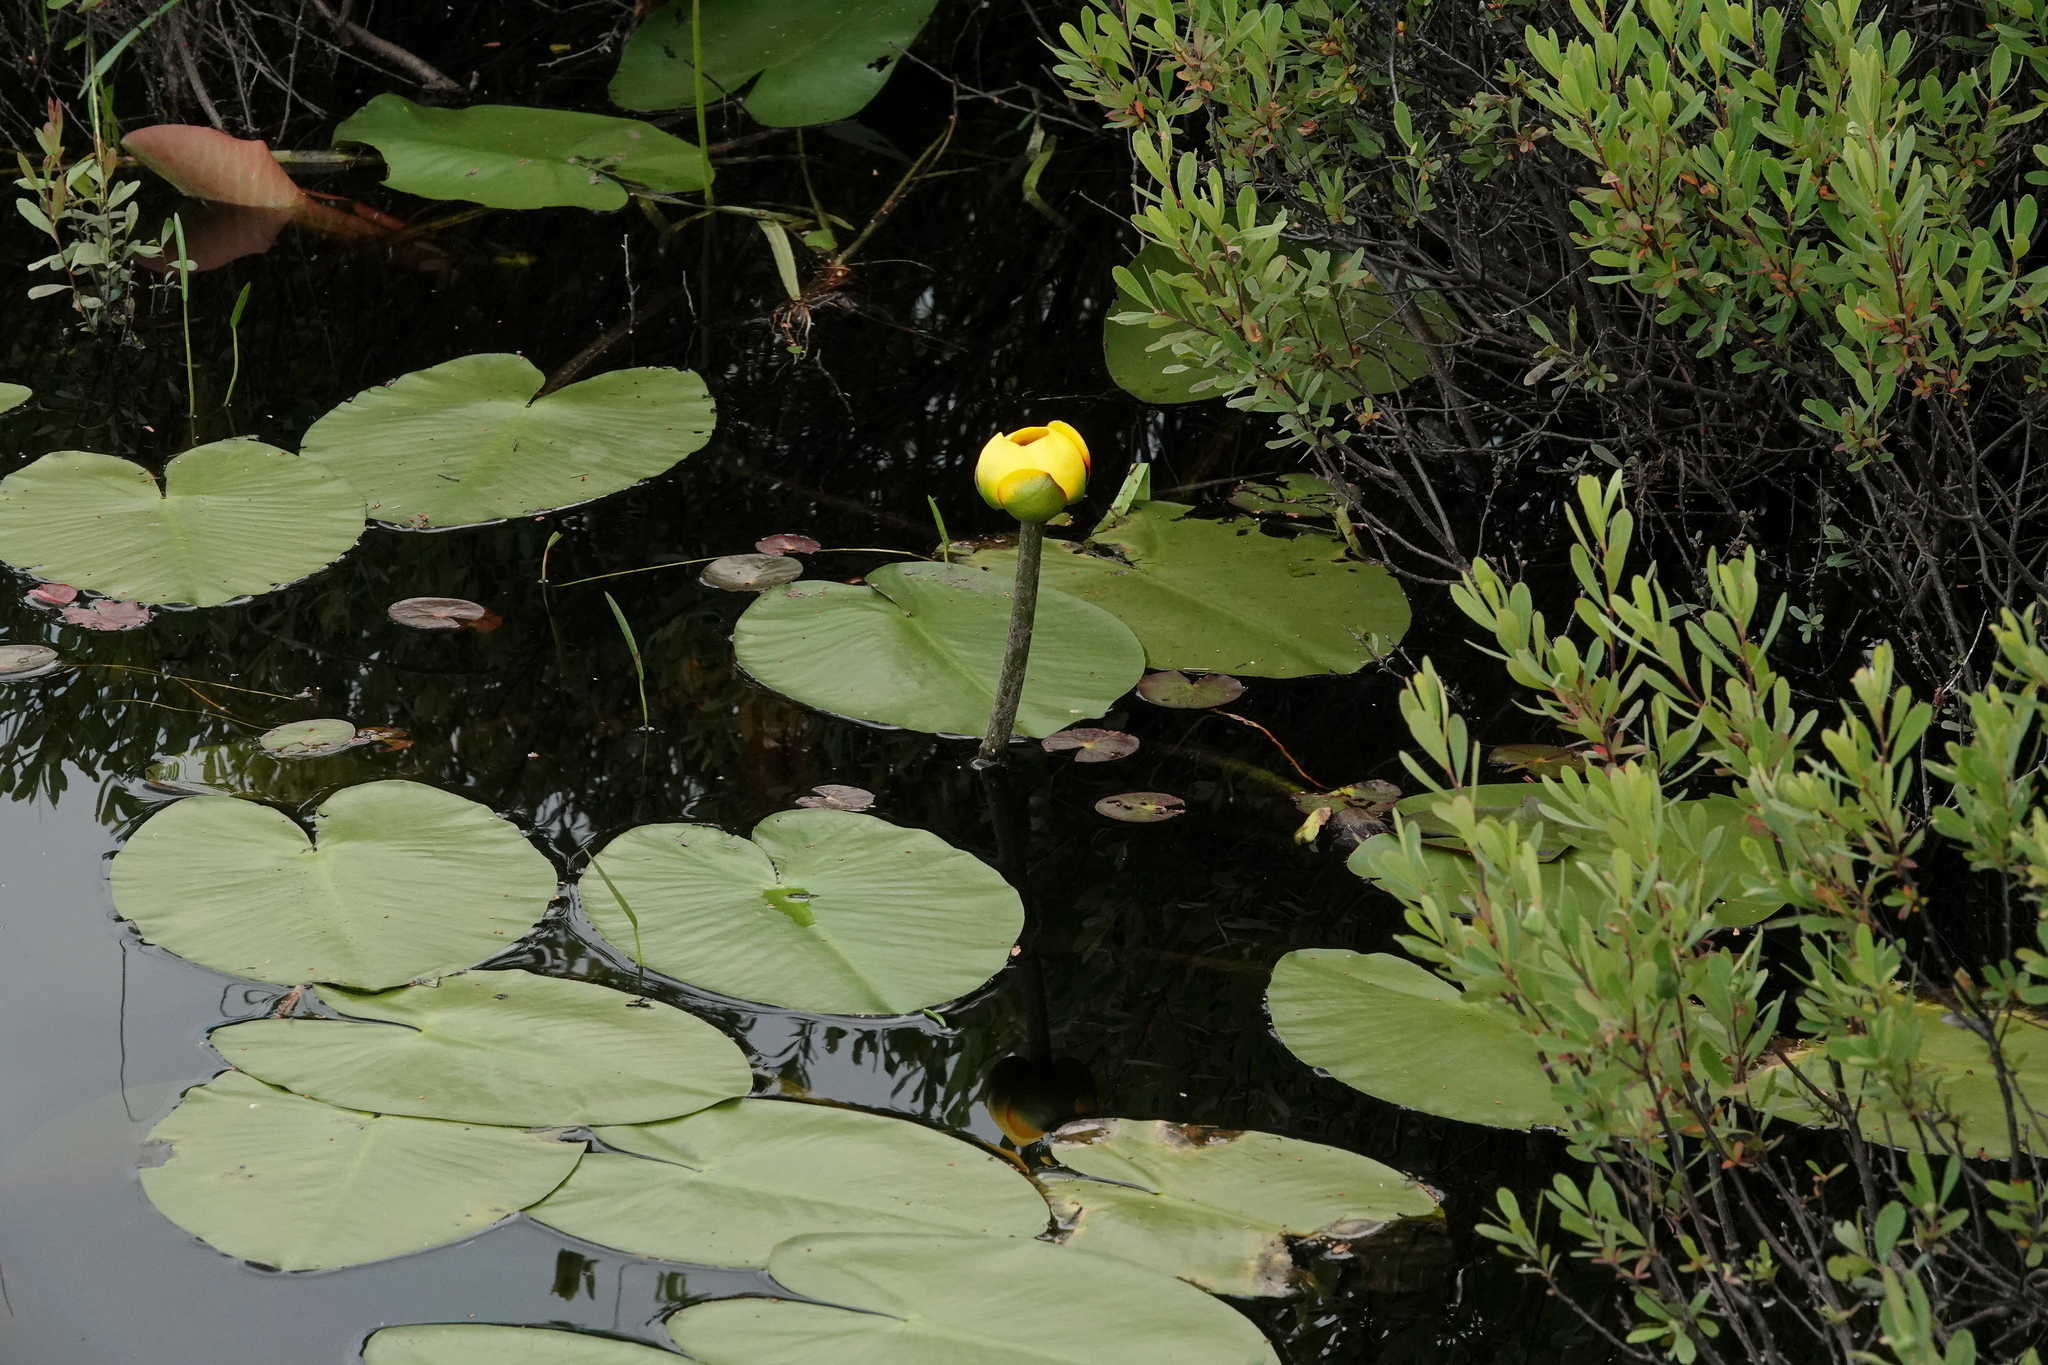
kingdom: Plantae
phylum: Tracheophyta
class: Magnoliopsida
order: Nymphaeales
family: Nymphaeaceae
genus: Nuphar
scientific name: Nuphar variegata
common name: Beaver-root
